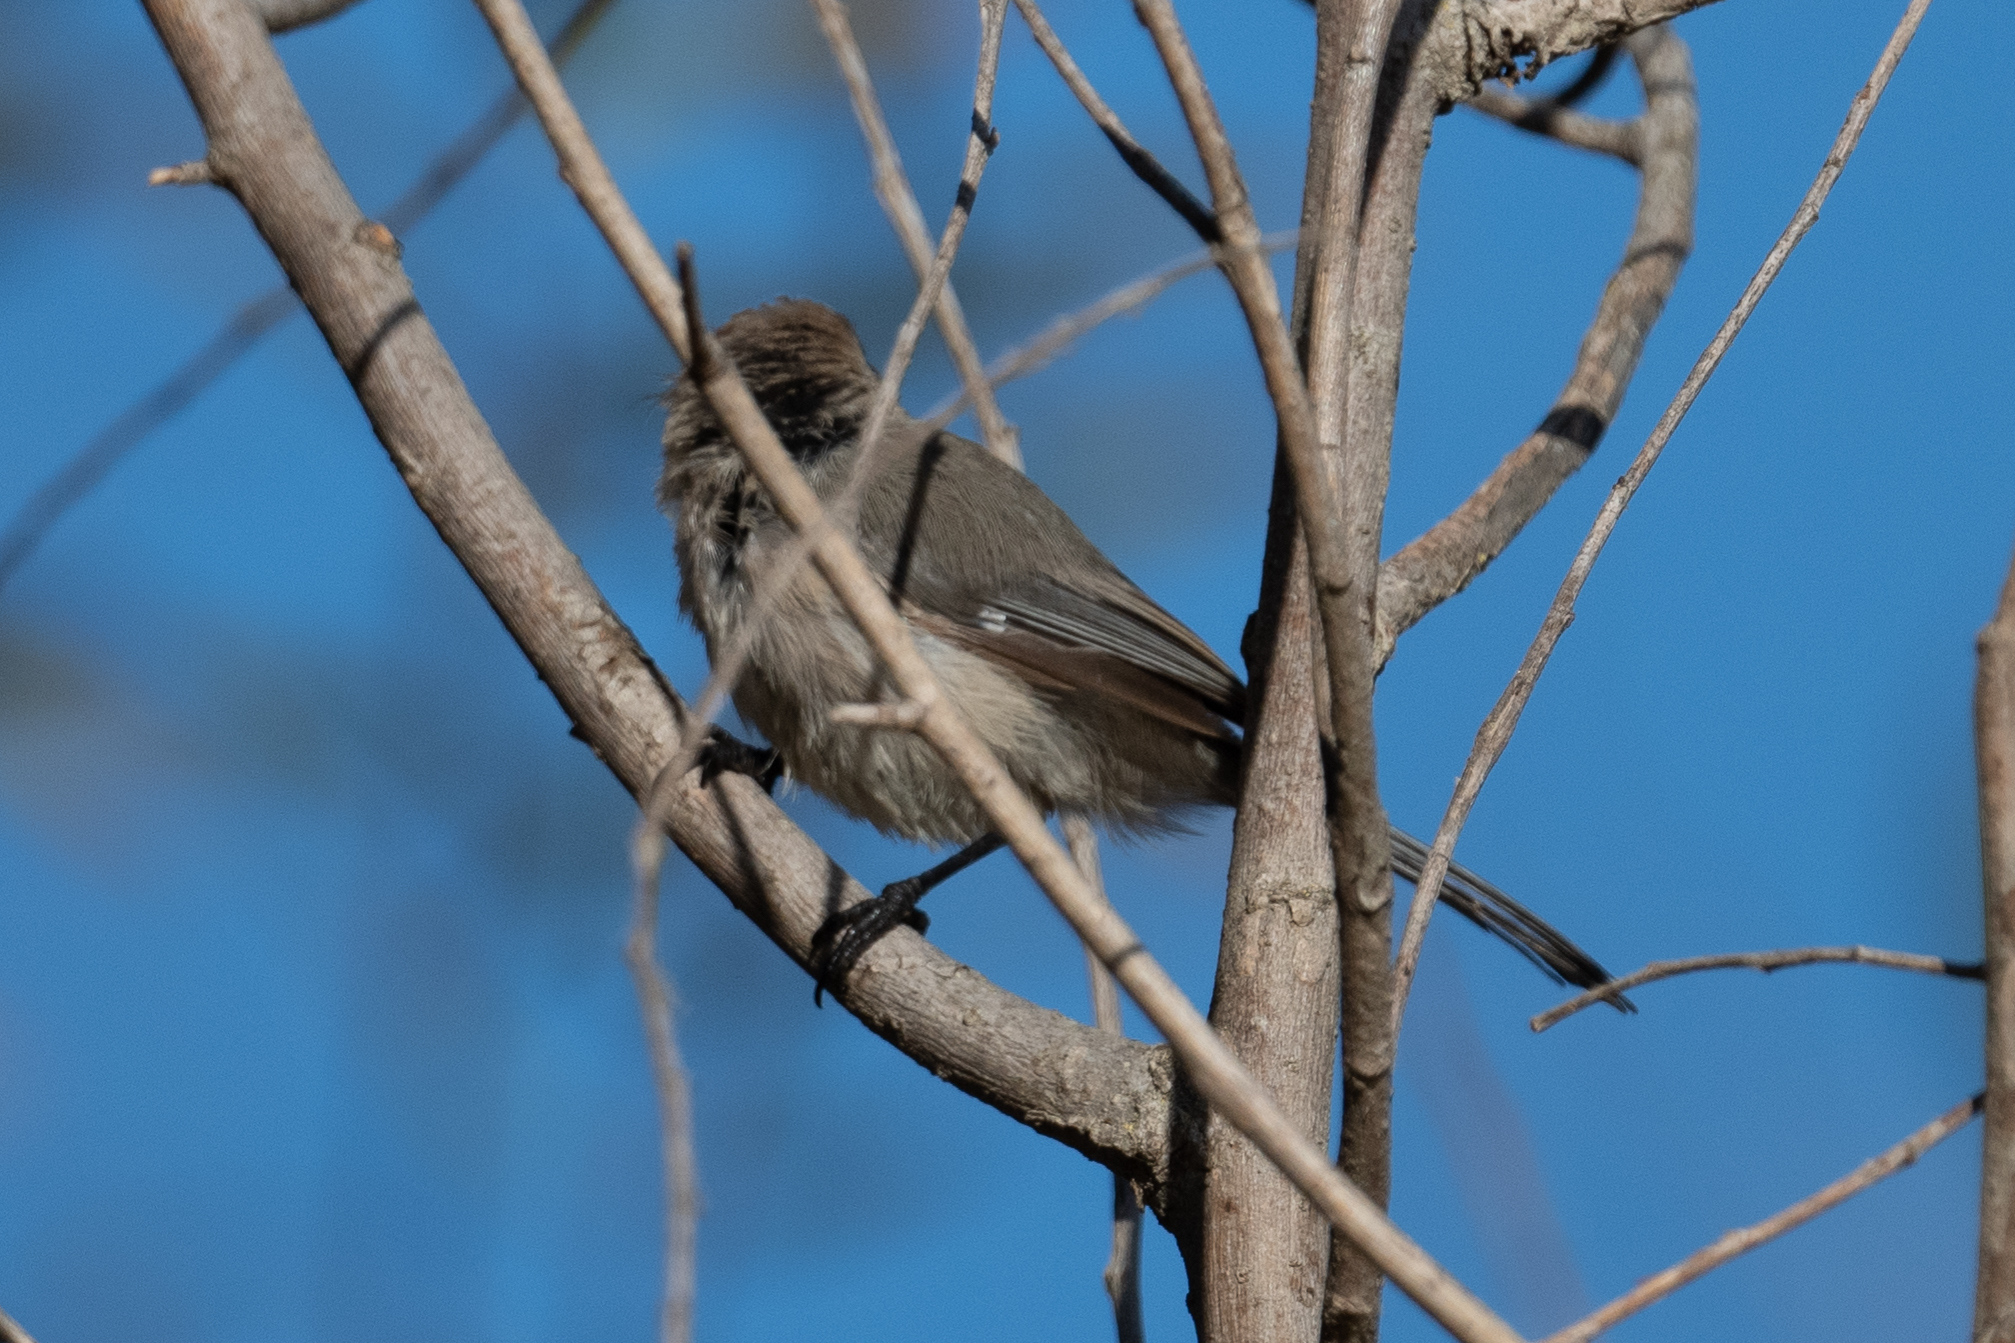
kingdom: Animalia
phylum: Chordata
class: Aves
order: Passeriformes
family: Aegithalidae
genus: Psaltriparus
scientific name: Psaltriparus minimus
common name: American bushtit
